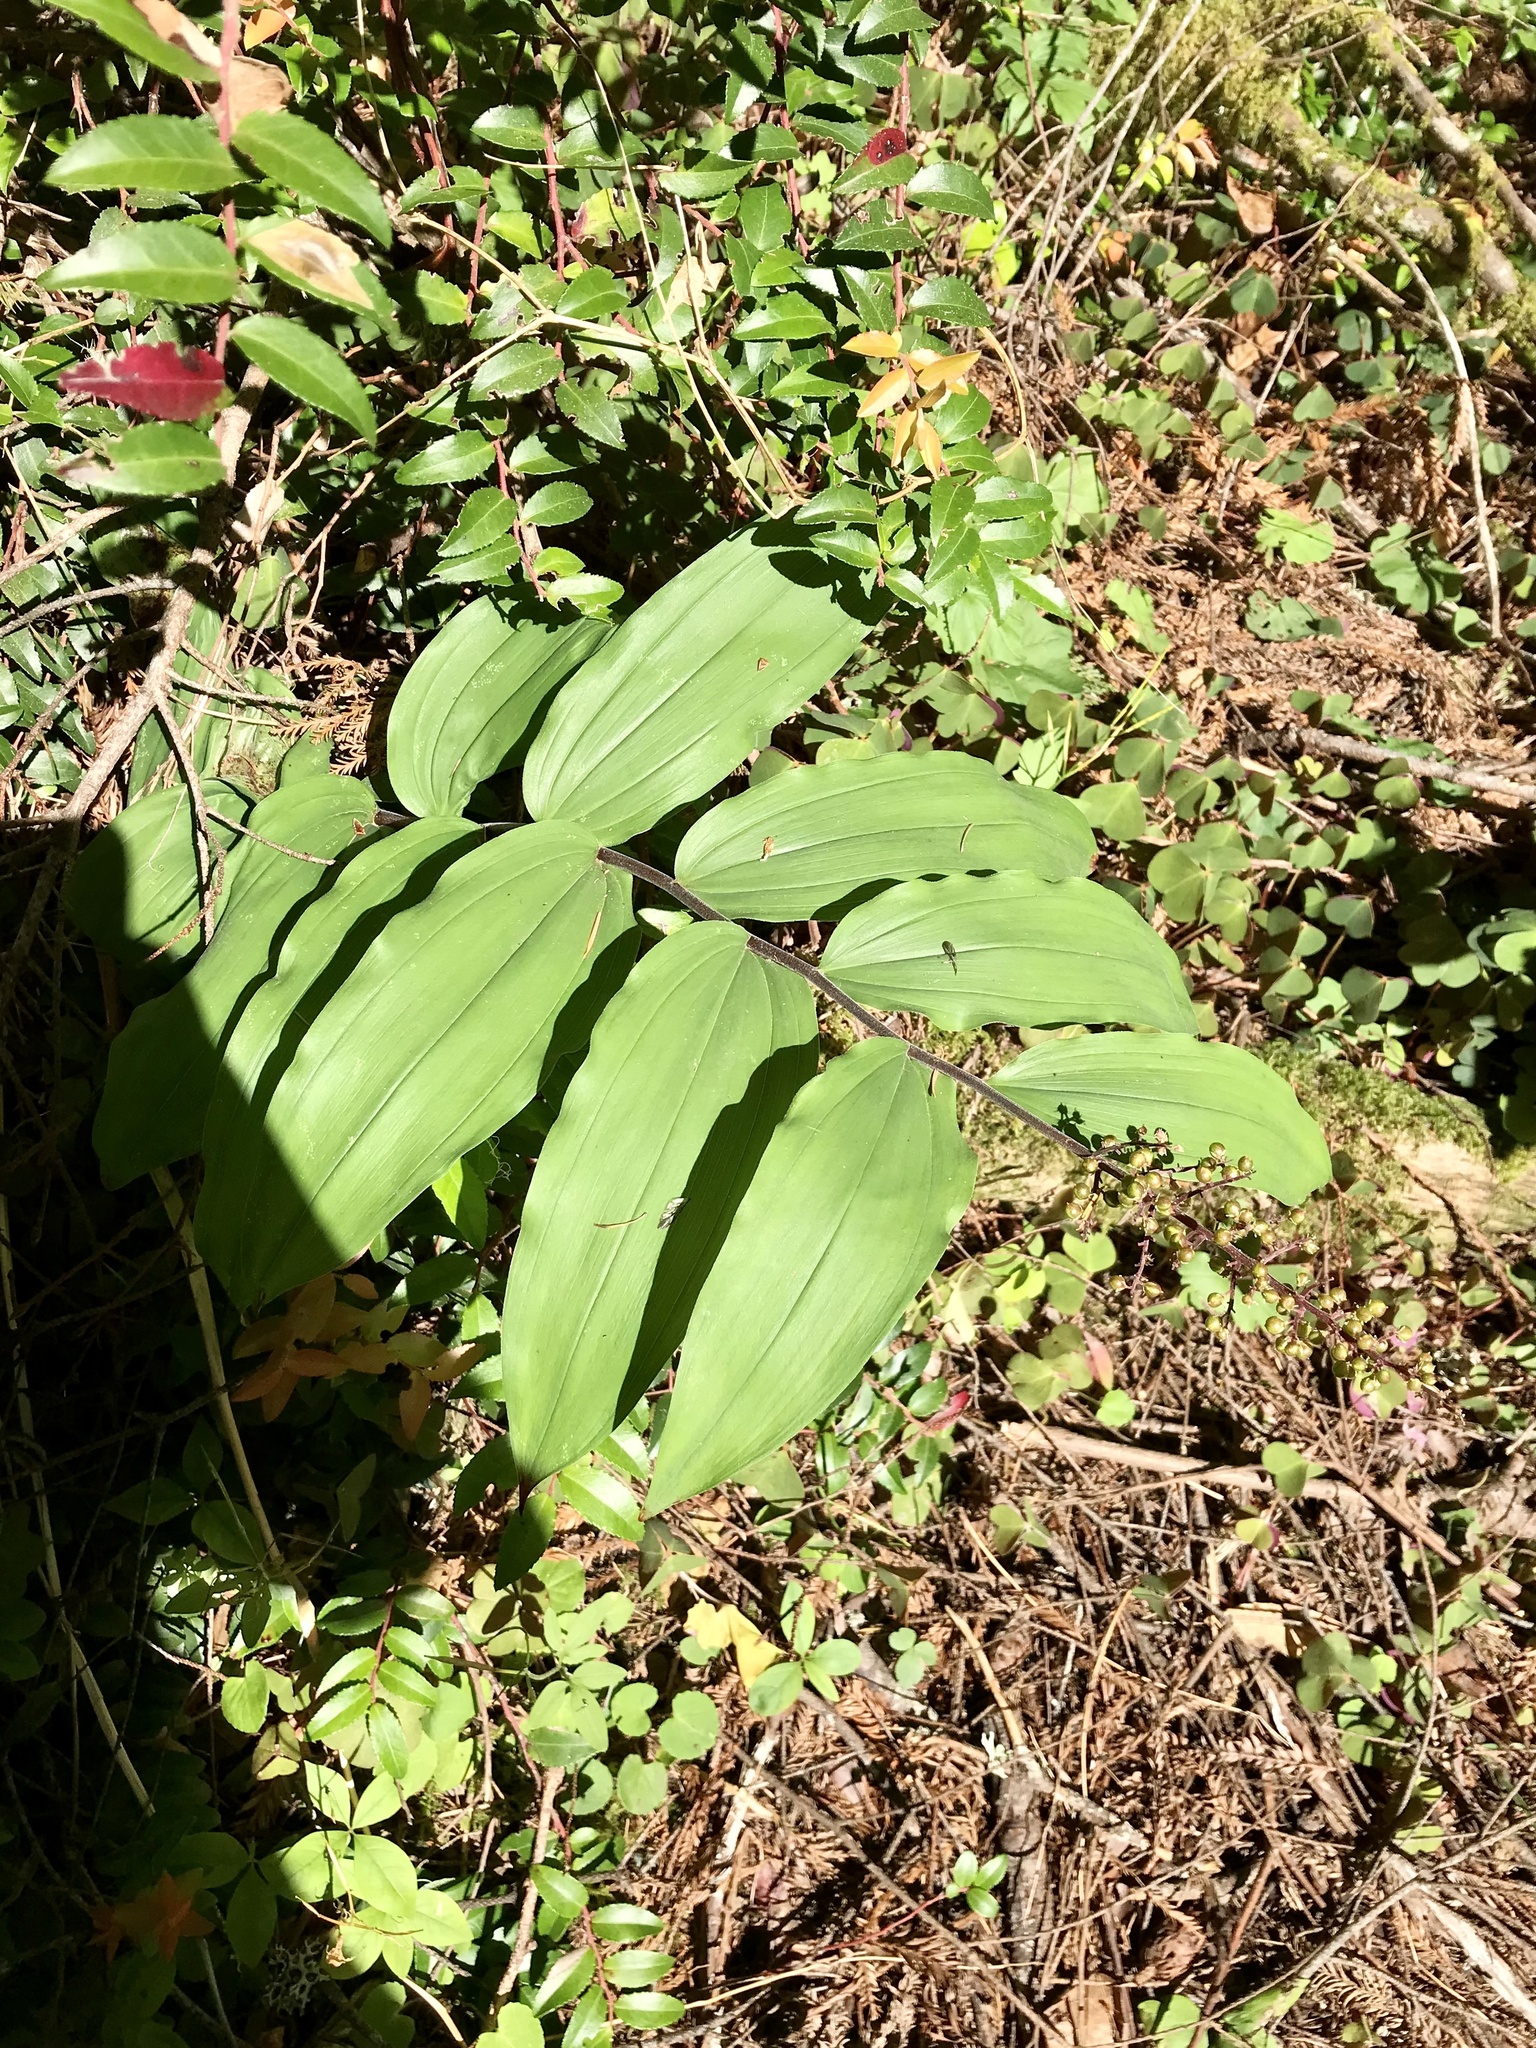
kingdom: Plantae
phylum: Tracheophyta
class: Liliopsida
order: Asparagales
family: Asparagaceae
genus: Maianthemum
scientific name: Maianthemum racemosum
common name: False spikenard
